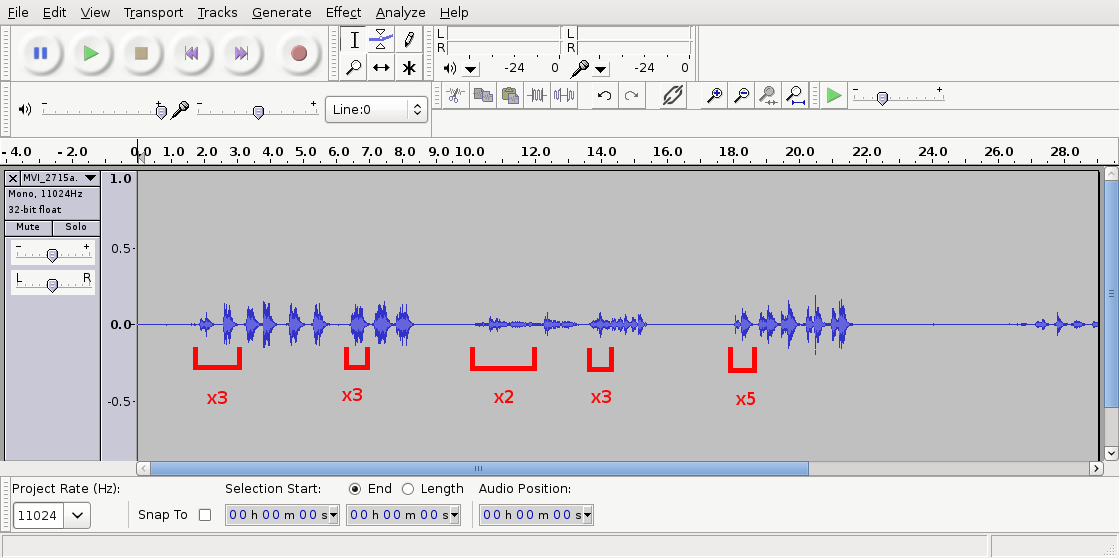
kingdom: Animalia
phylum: Chordata
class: Aves
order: Passeriformes
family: Turdidae
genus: Turdus
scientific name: Turdus philomelos
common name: Song thrush
